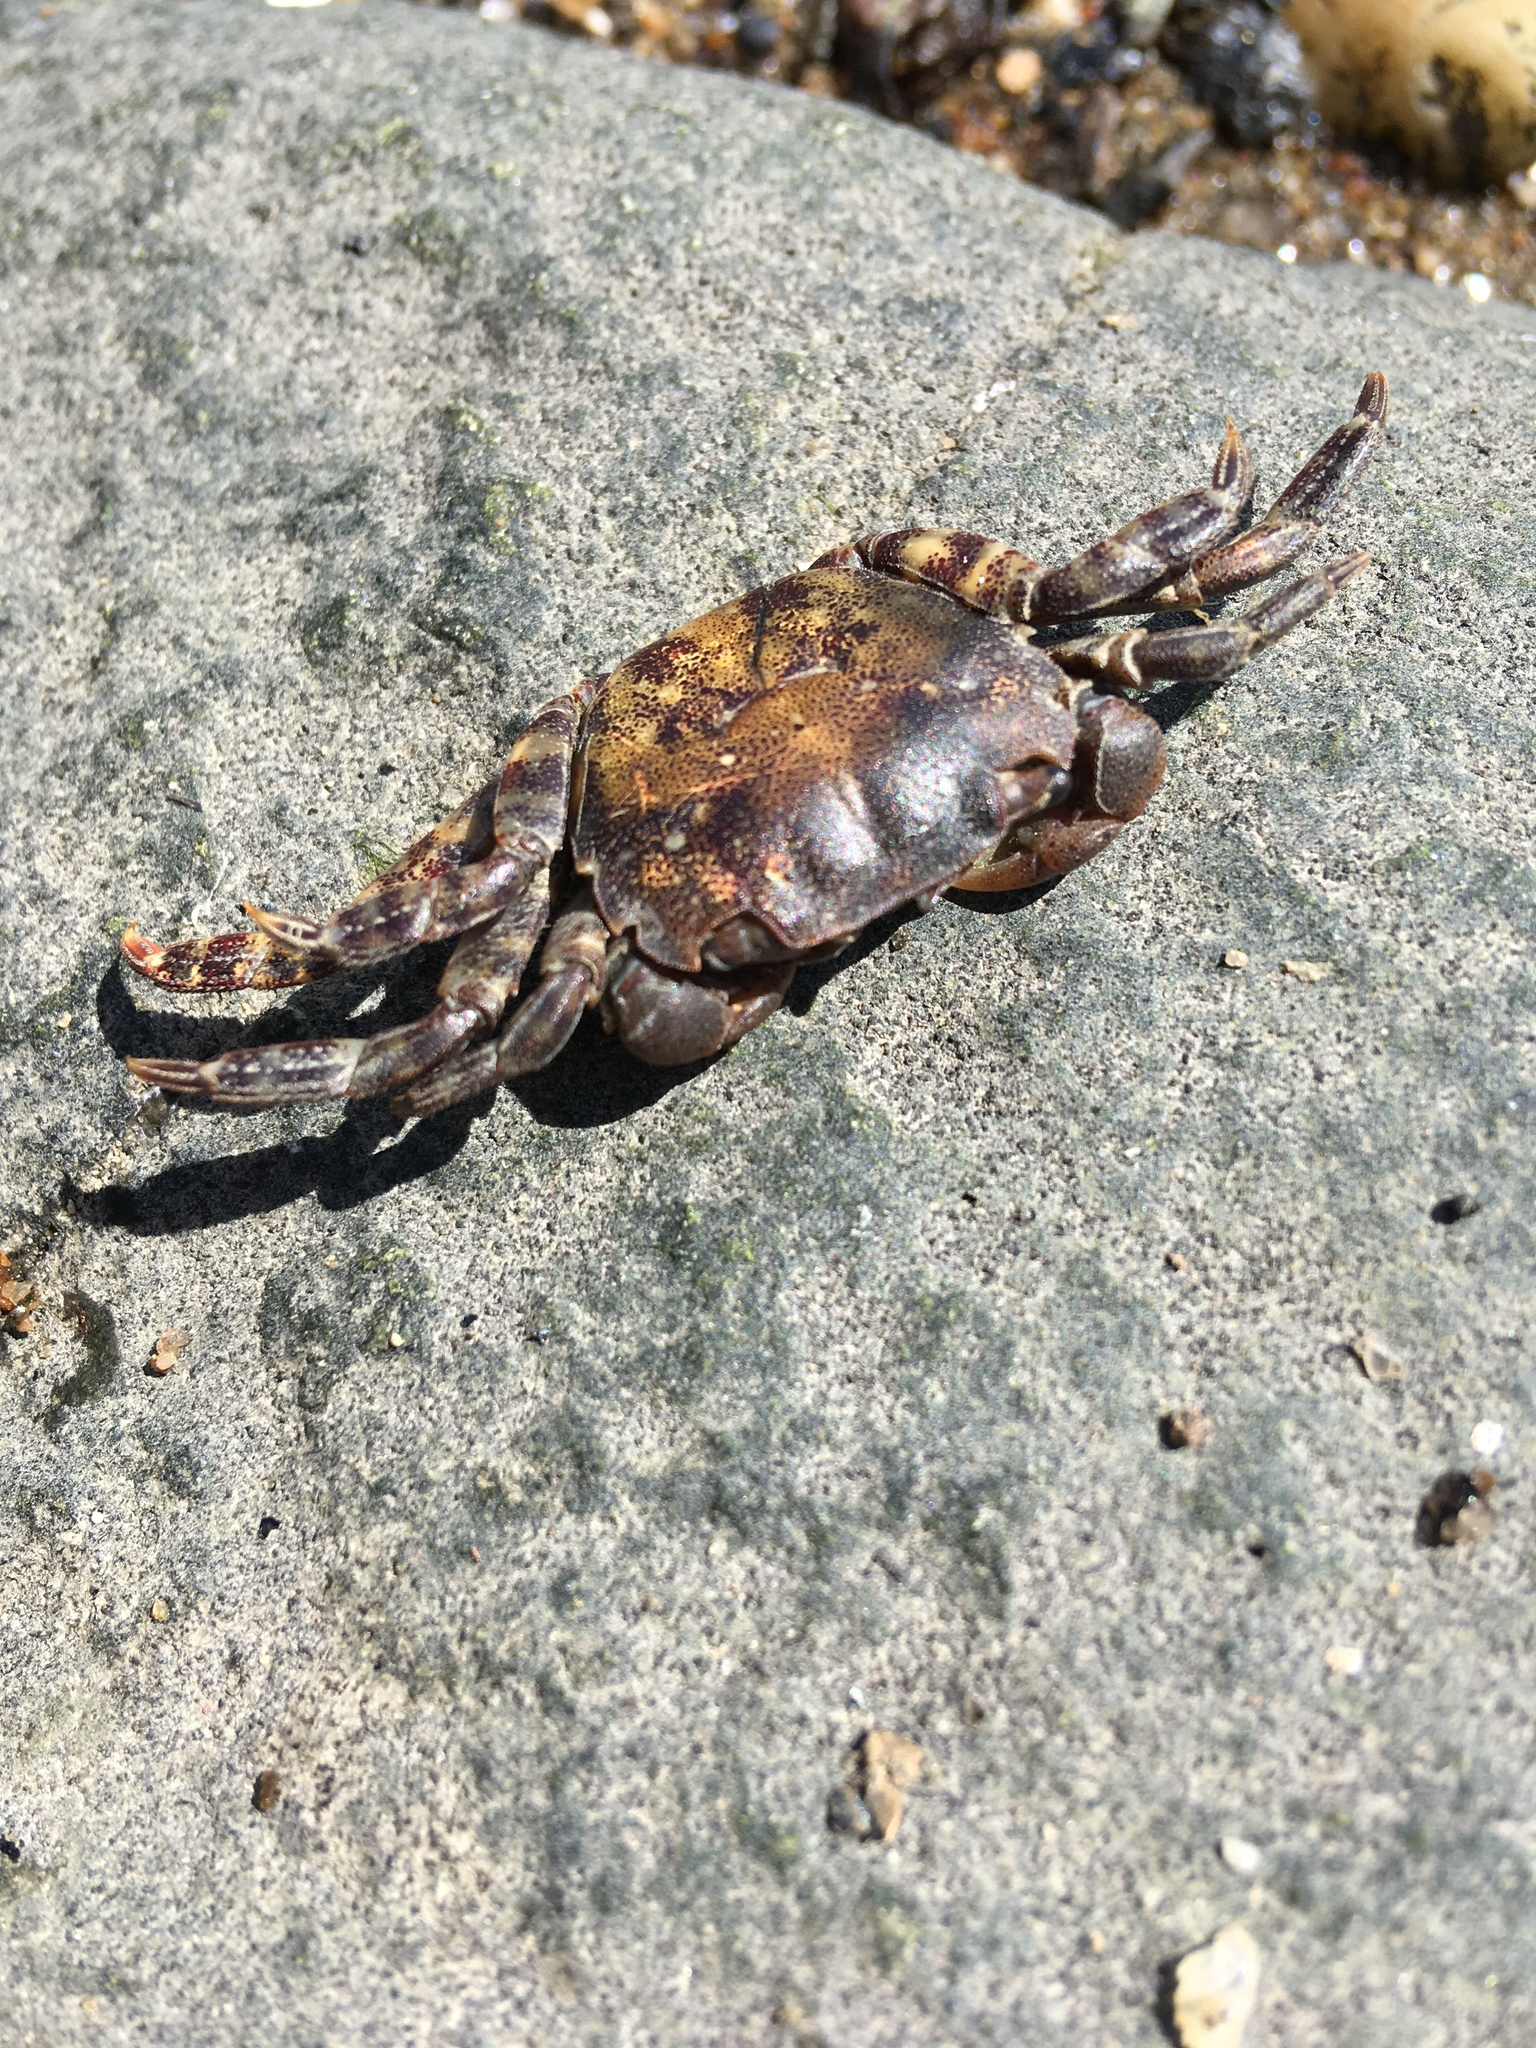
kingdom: Animalia
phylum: Arthropoda
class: Malacostraca
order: Decapoda
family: Varunidae
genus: Hemigrapsus
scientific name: Hemigrapsus sanguineus
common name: Asian shore crab
